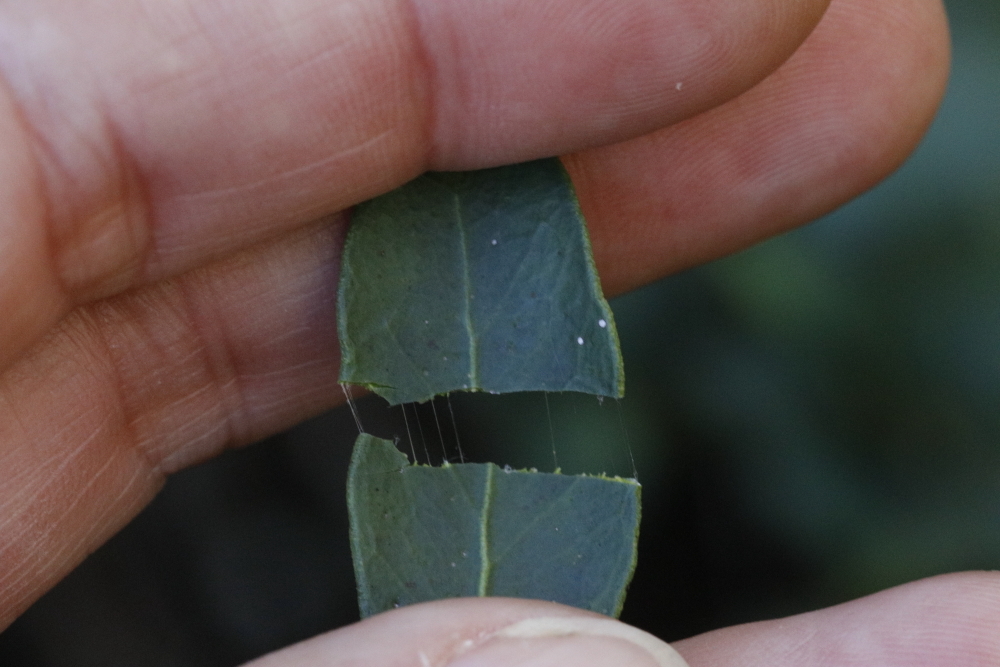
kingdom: Plantae
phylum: Tracheophyta
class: Magnoliopsida
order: Celastrales
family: Celastraceae
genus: Robsonodendron
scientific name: Robsonodendron maritimum
